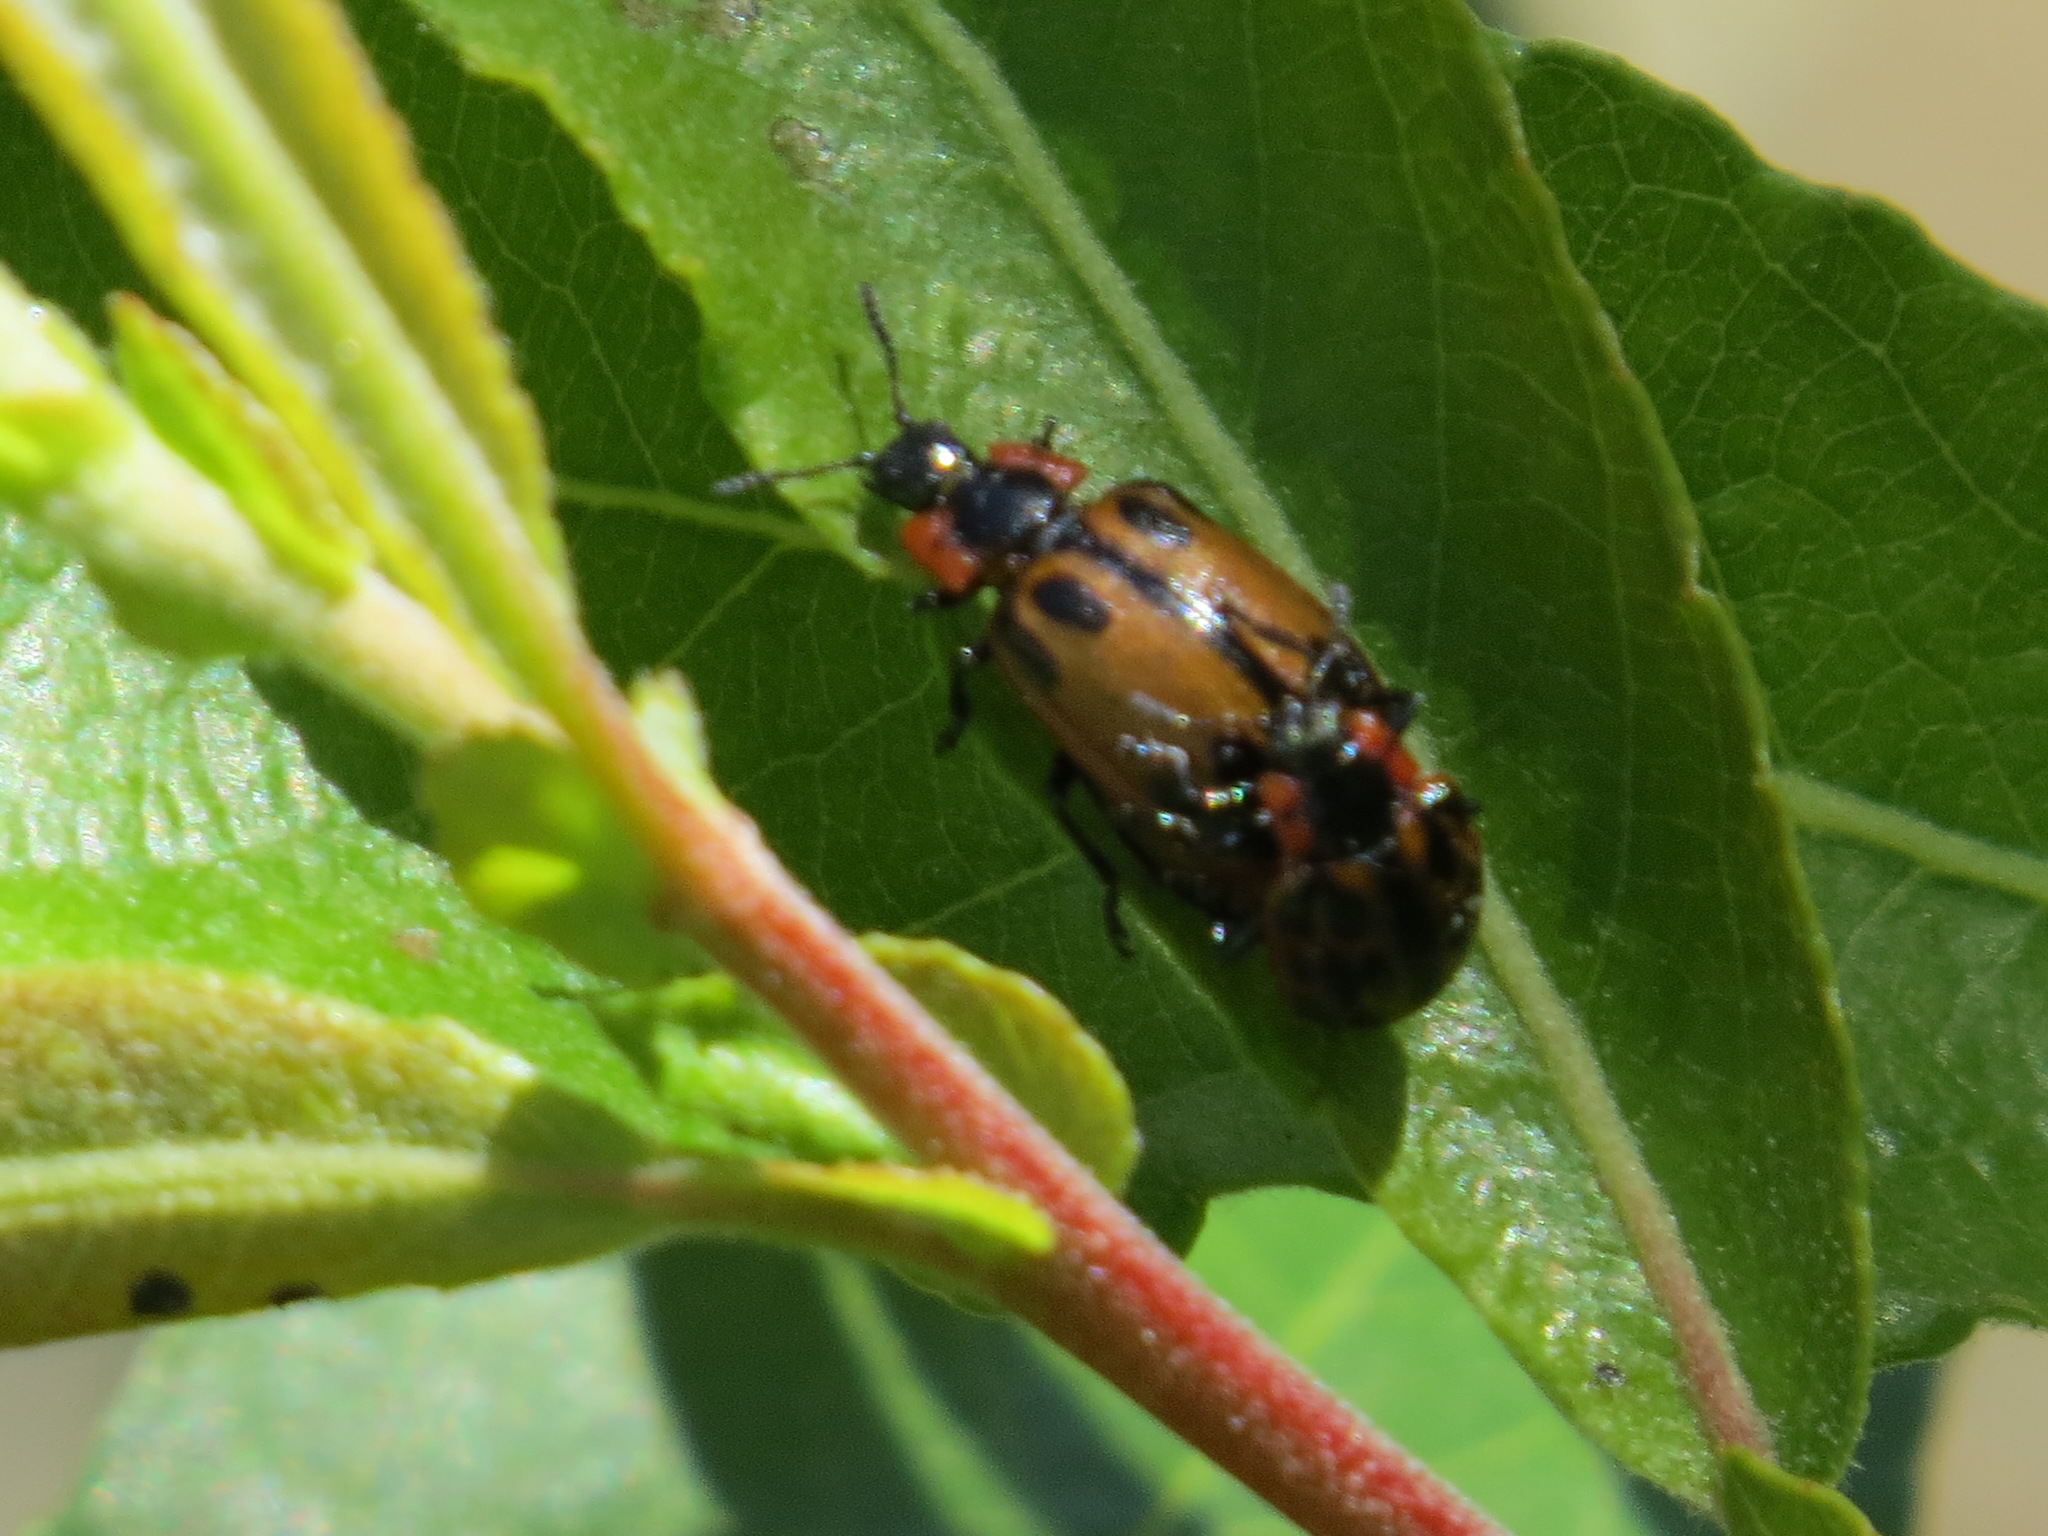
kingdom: Animalia
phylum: Arthropoda
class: Insecta
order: Coleoptera
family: Chrysomelidae
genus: Chrysomela
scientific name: Chrysomela confluens
